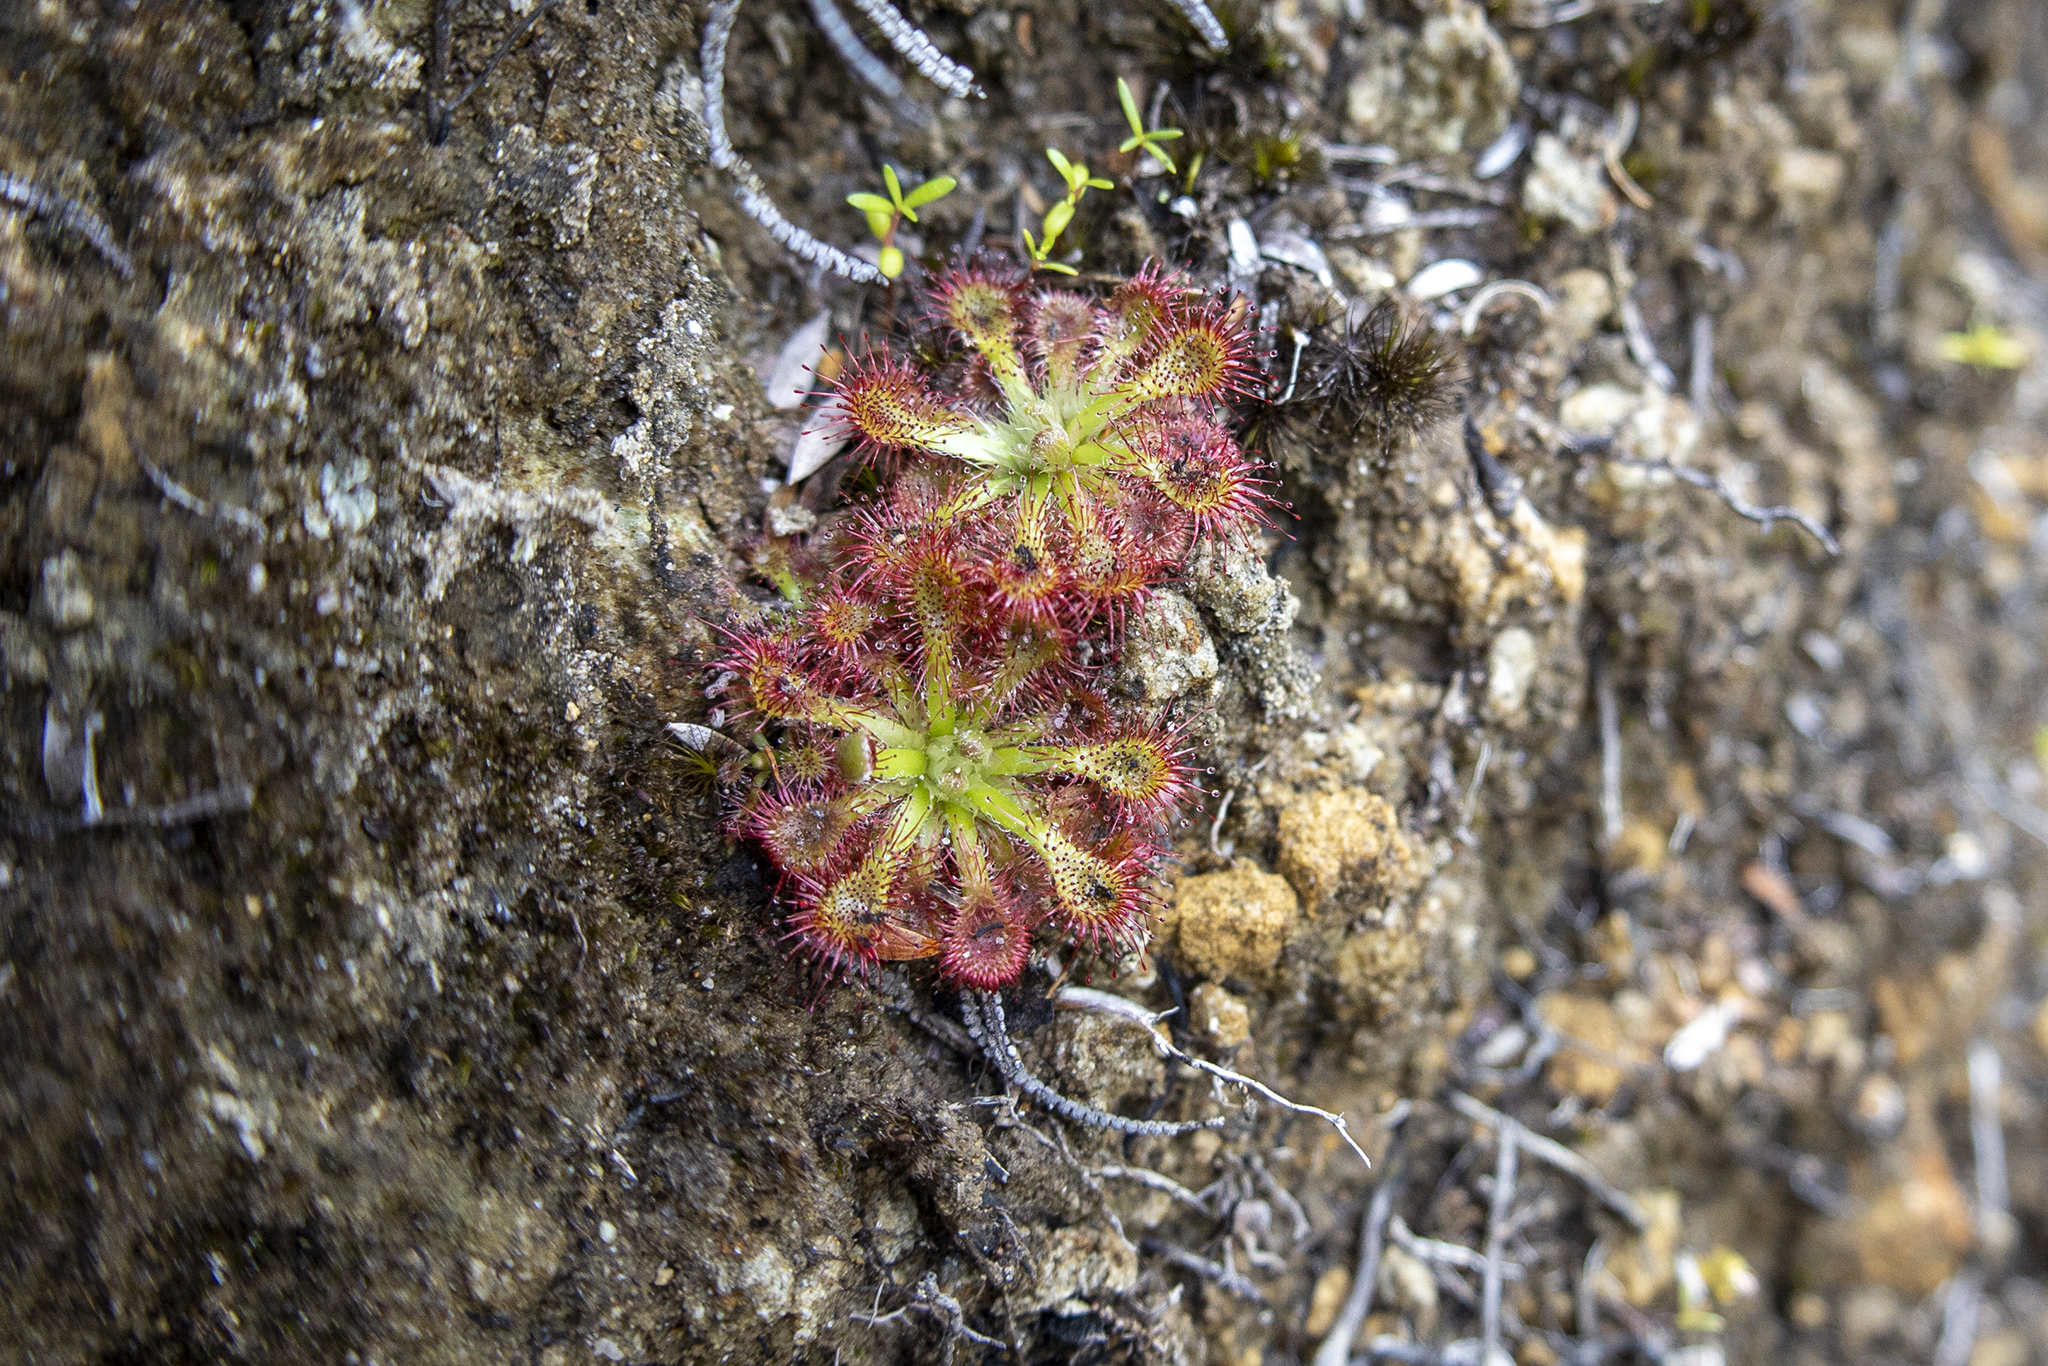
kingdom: Plantae
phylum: Tracheophyta
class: Magnoliopsida
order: Caryophyllales
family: Droseraceae
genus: Drosera
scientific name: Drosera spatulata
